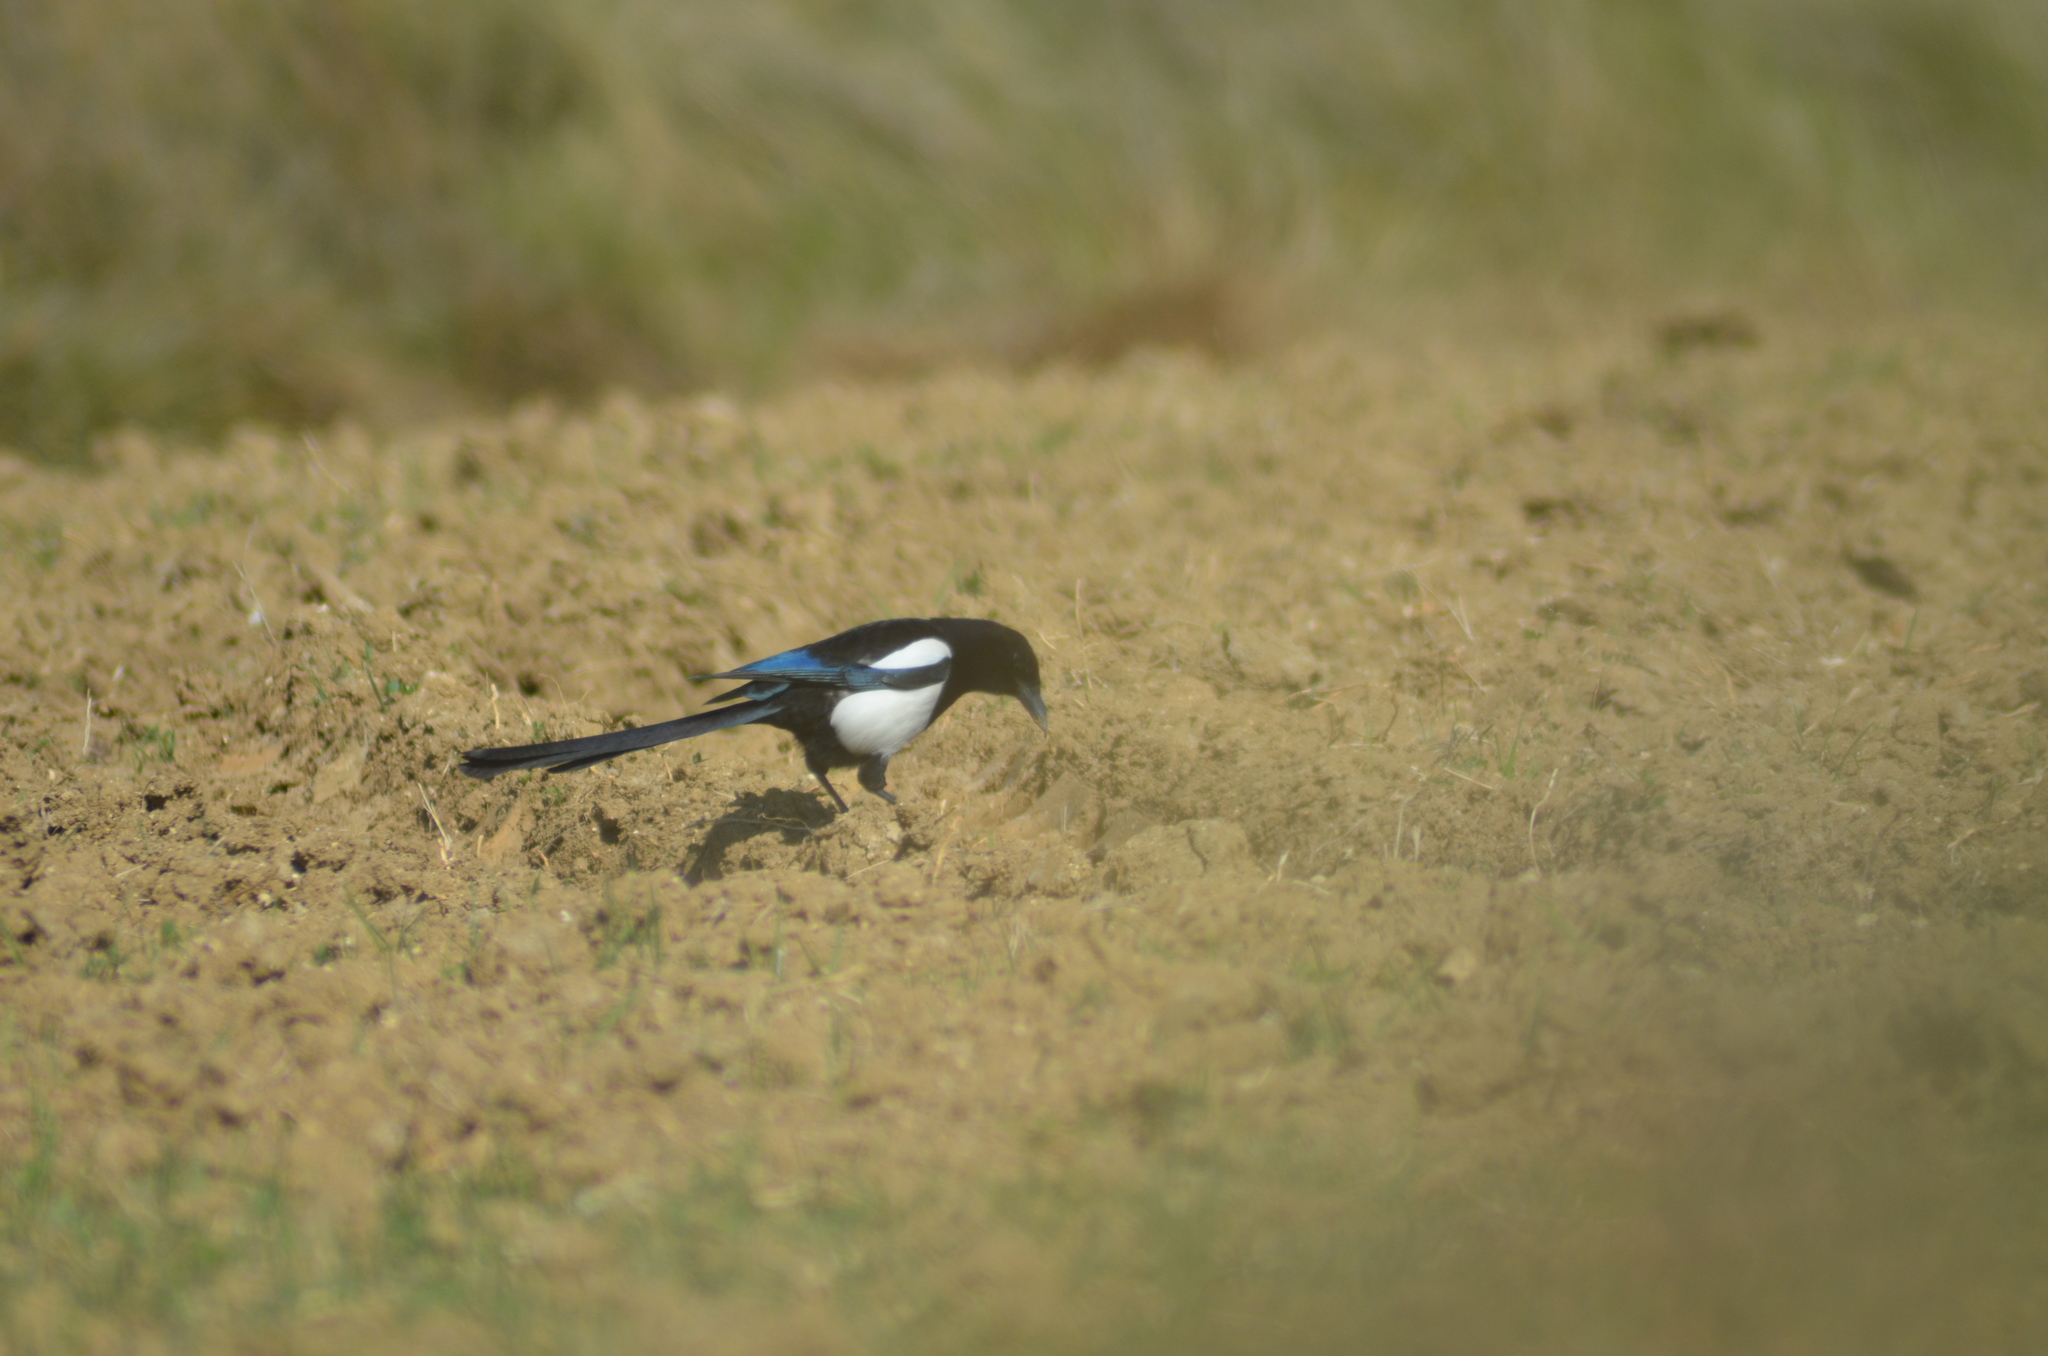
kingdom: Animalia
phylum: Chordata
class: Aves
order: Passeriformes
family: Corvidae
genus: Pica
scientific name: Pica pica
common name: Eurasian magpie
